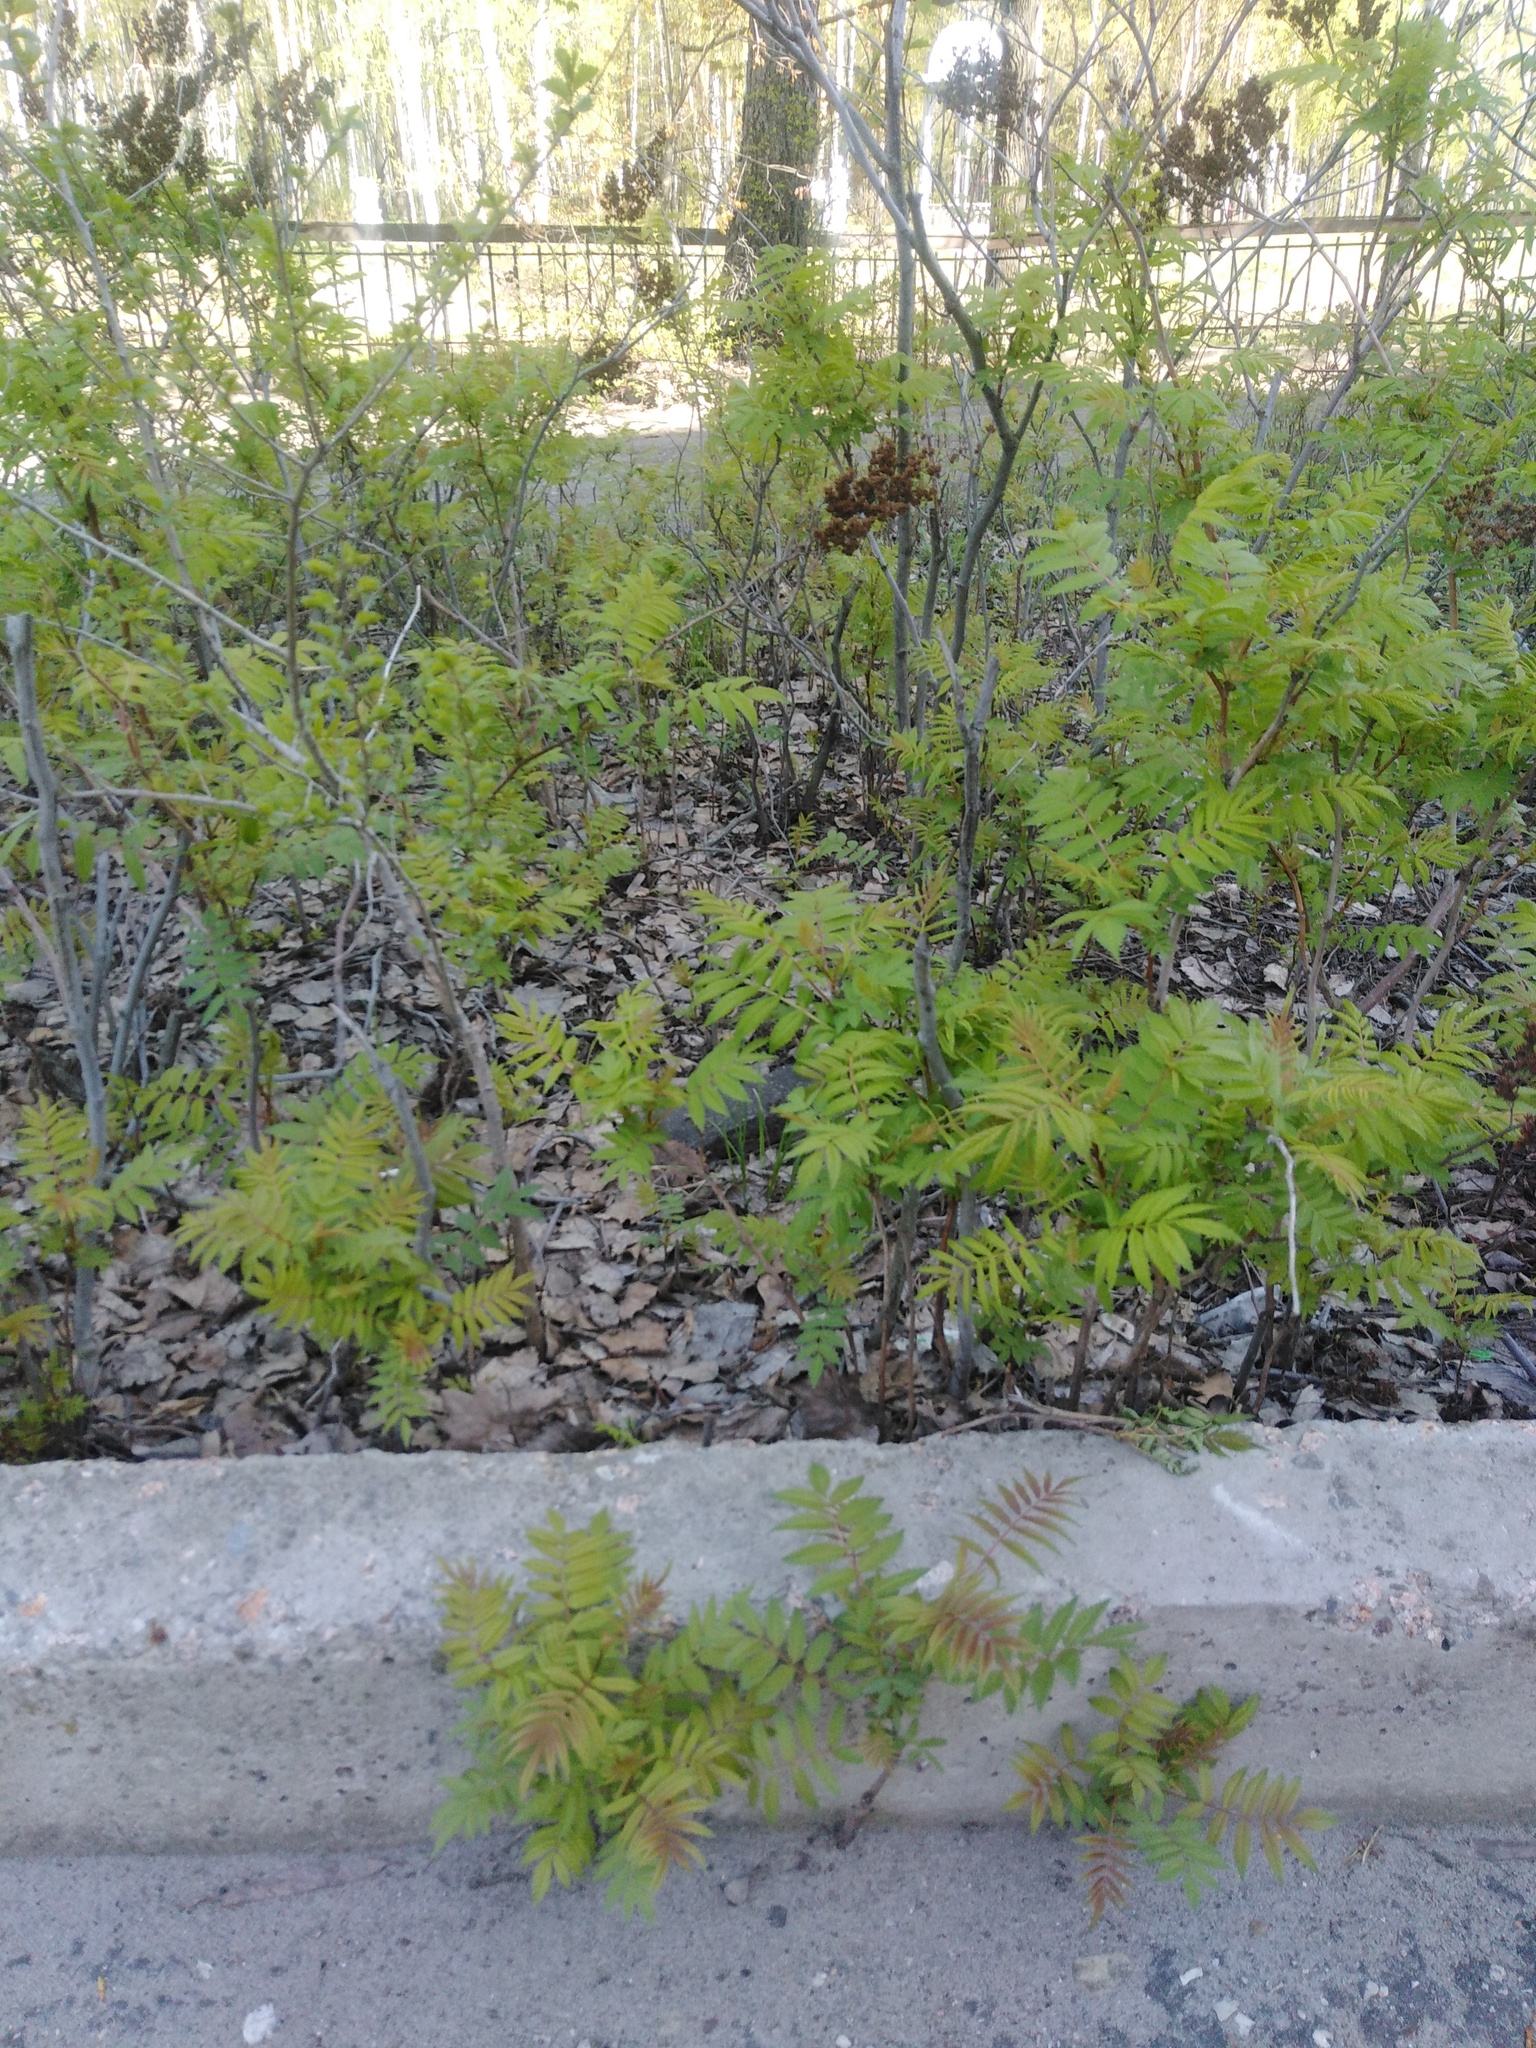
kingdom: Plantae
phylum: Tracheophyta
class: Magnoliopsida
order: Rosales
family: Rosaceae
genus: Sorbaria
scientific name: Sorbaria sorbifolia
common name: False spiraea
